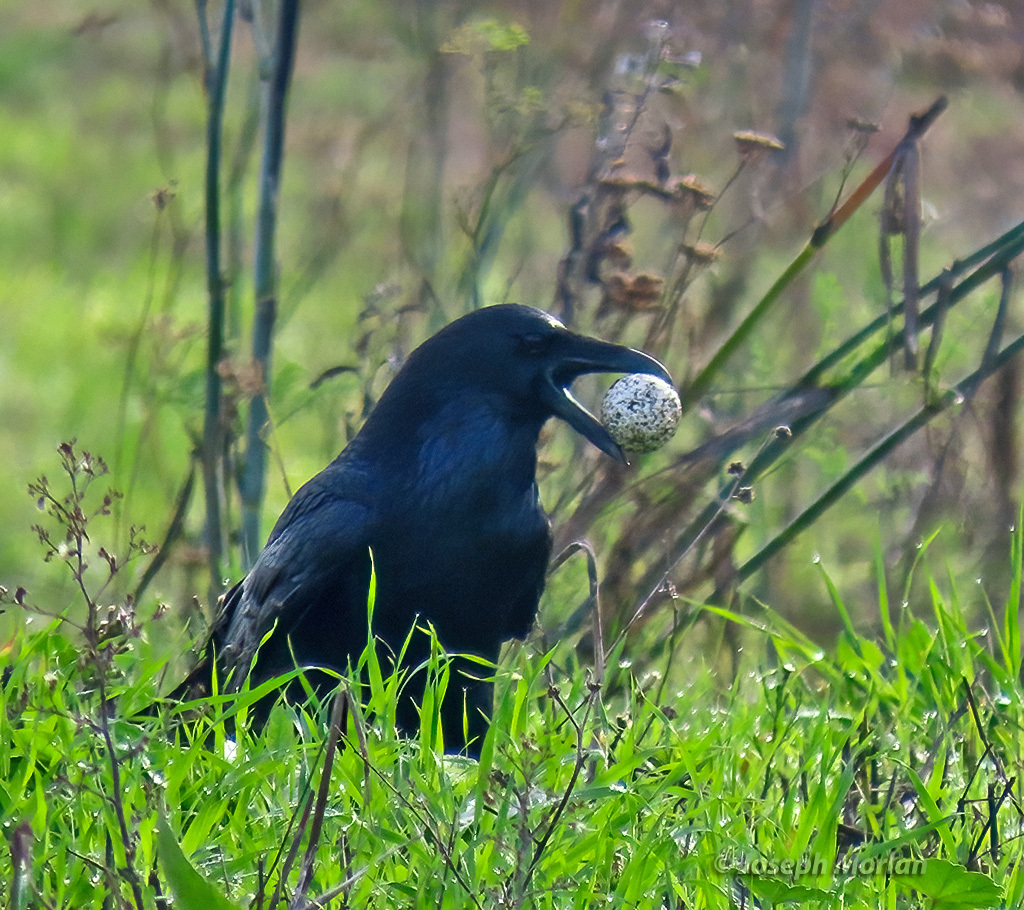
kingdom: Animalia
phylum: Chordata
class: Aves
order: Passeriformes
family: Corvidae
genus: Corvus
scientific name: Corvus corax
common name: Common raven
